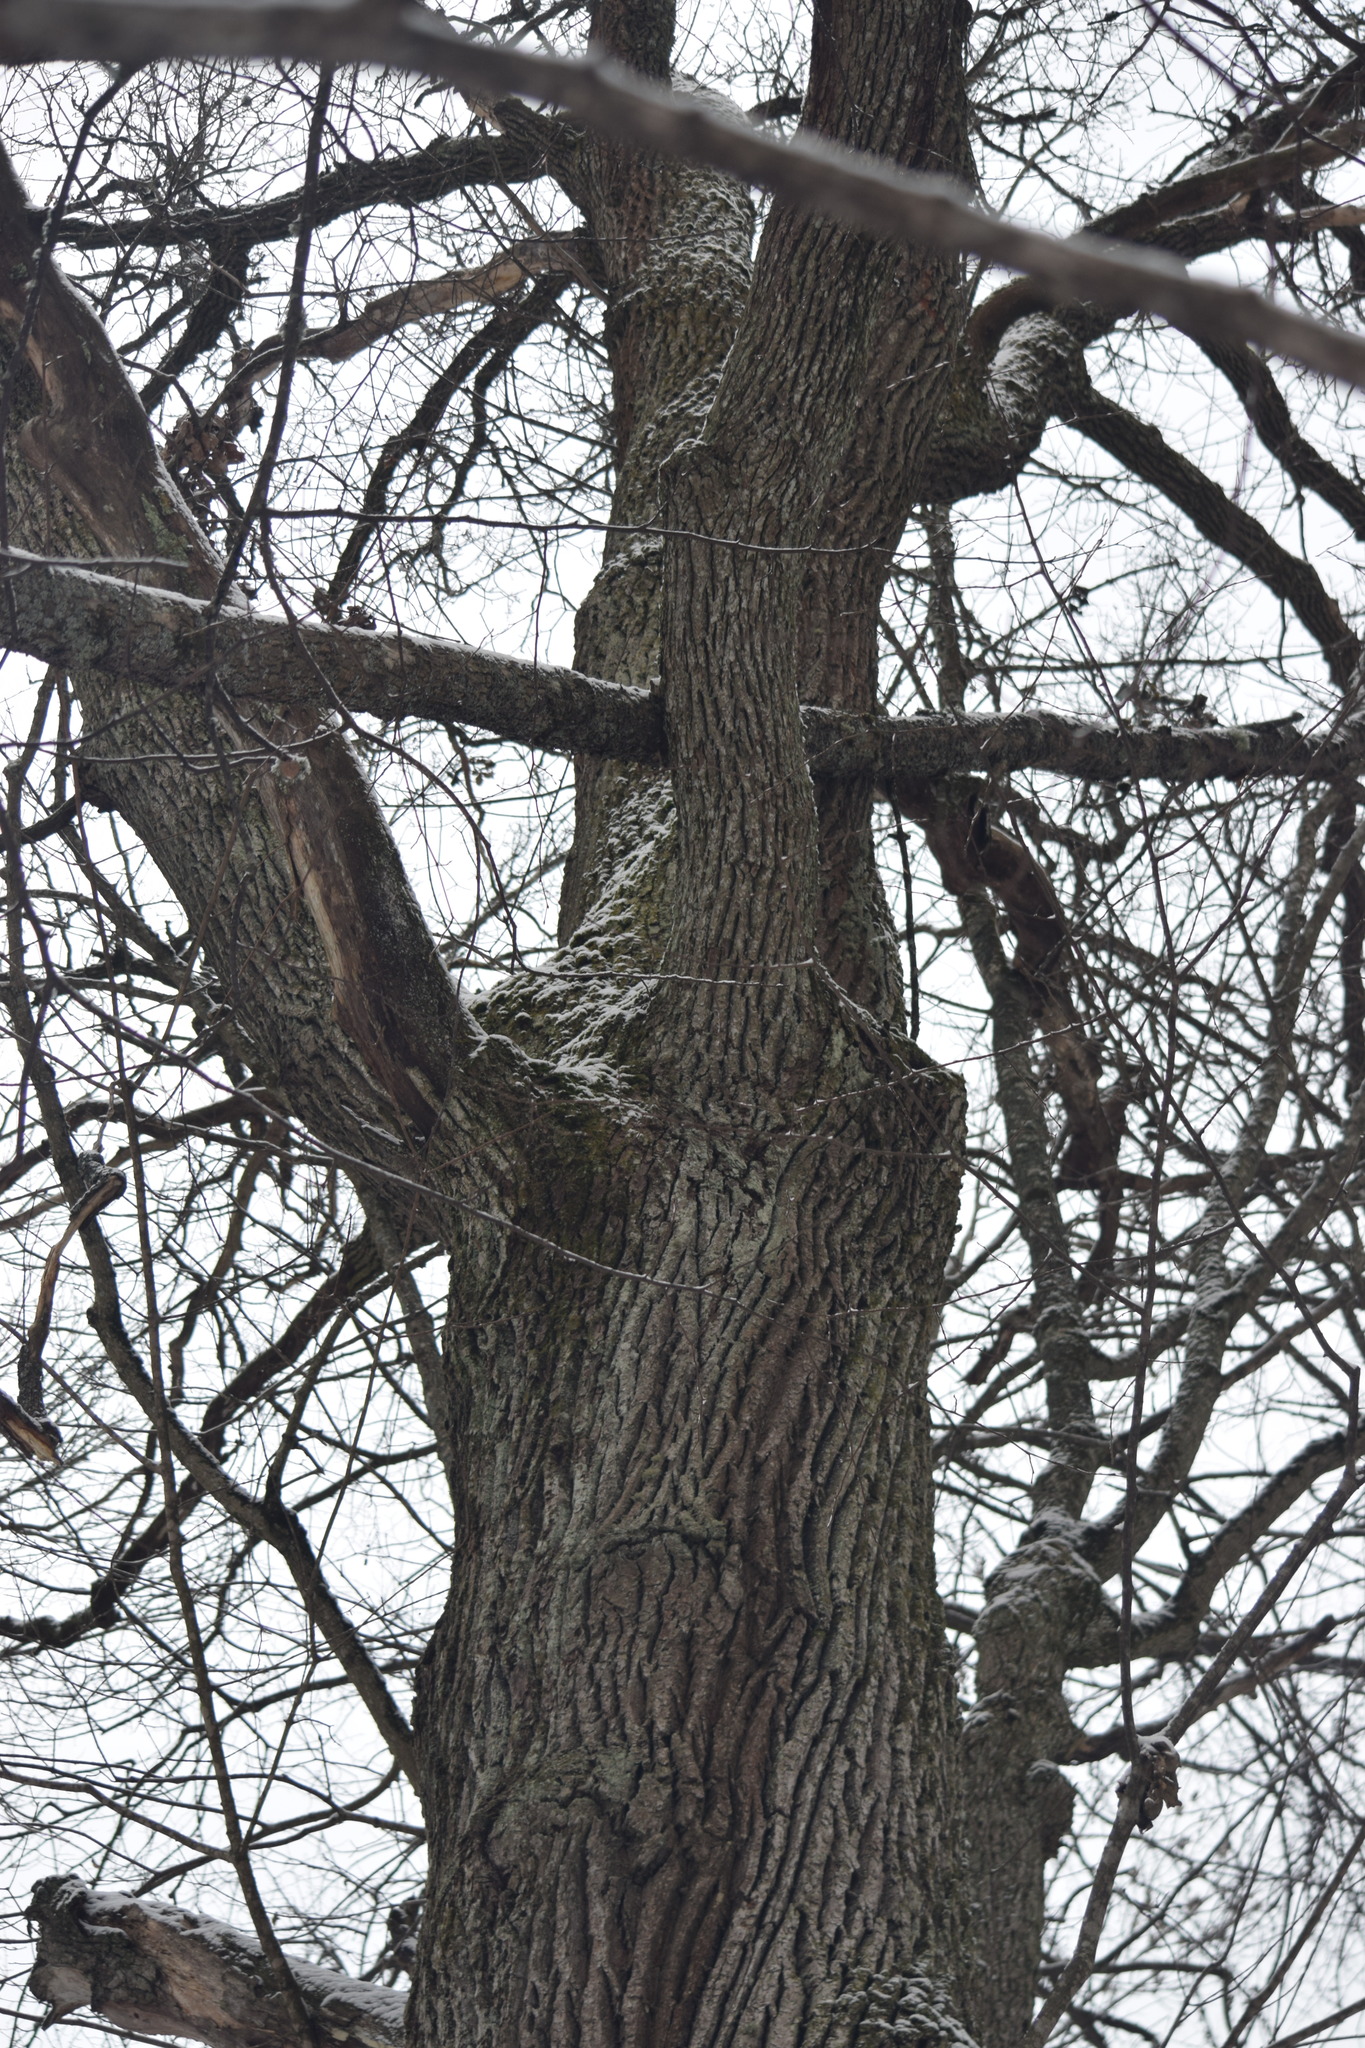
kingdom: Plantae
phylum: Tracheophyta
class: Magnoliopsida
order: Fagales
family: Fagaceae
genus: Quercus
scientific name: Quercus robur
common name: Pedunculate oak
